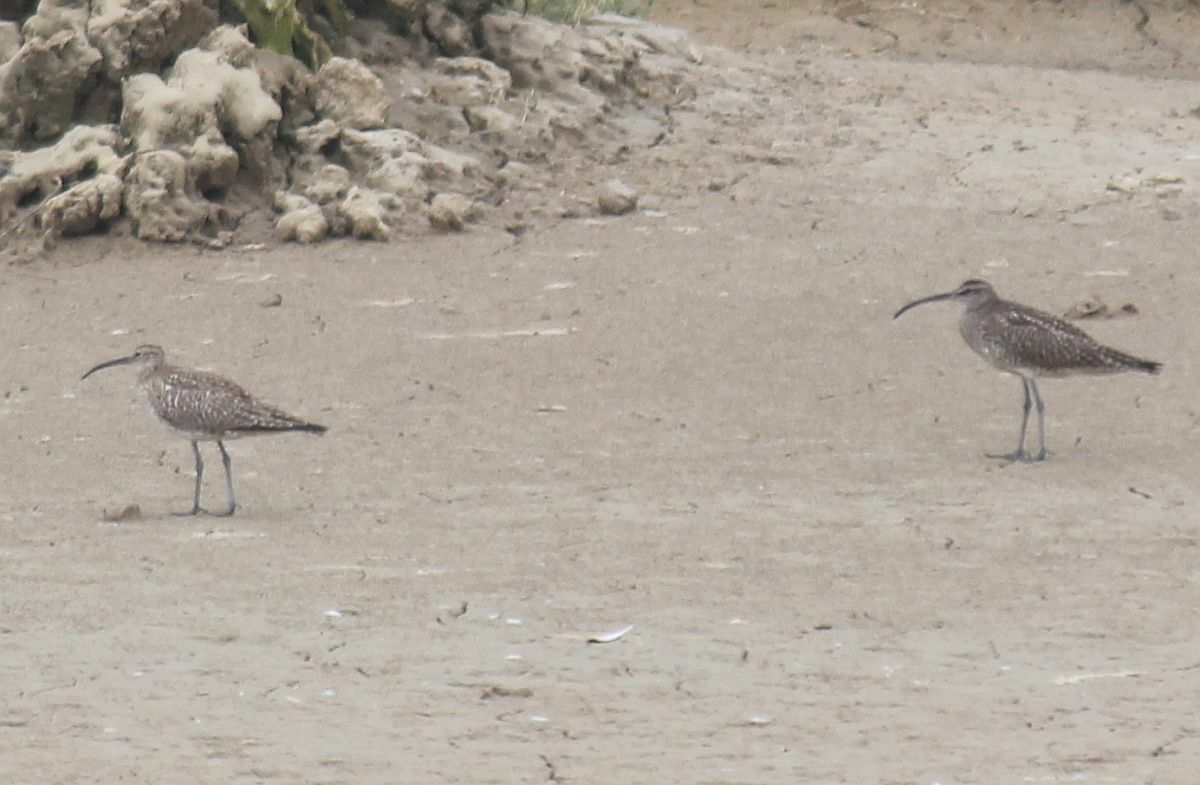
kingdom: Animalia
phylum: Chordata
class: Aves
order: Charadriiformes
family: Scolopacidae
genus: Numenius
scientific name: Numenius phaeopus
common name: Whimbrel
